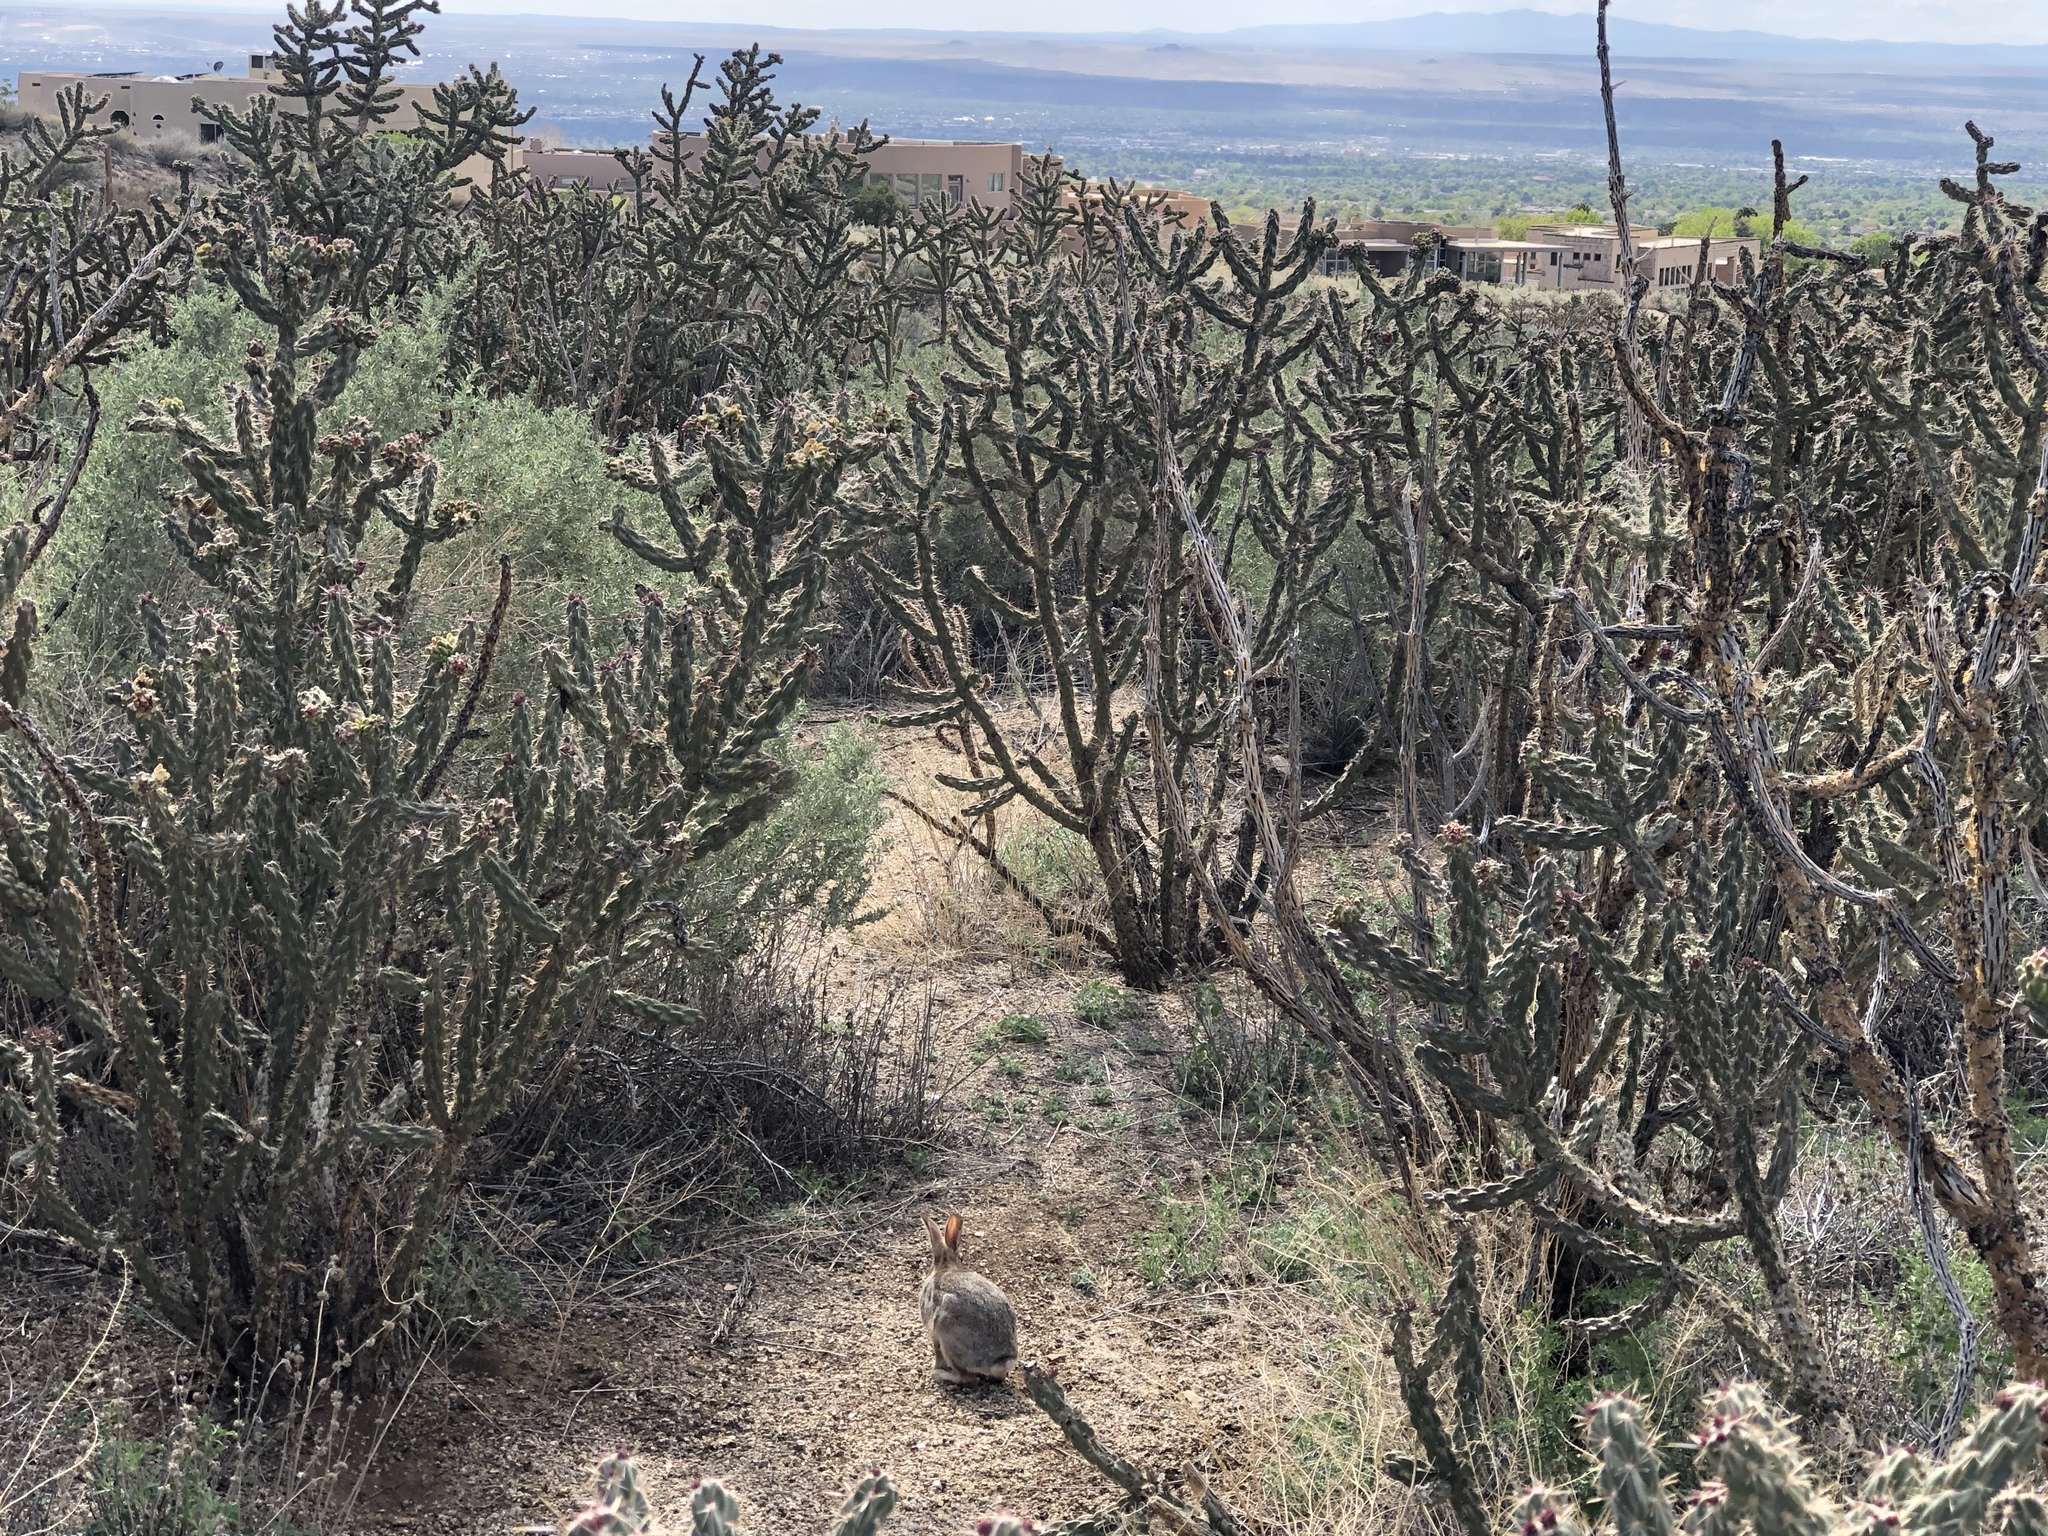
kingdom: Animalia
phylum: Chordata
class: Mammalia
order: Lagomorpha
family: Leporidae
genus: Sylvilagus
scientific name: Sylvilagus audubonii
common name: Desert cottontail
